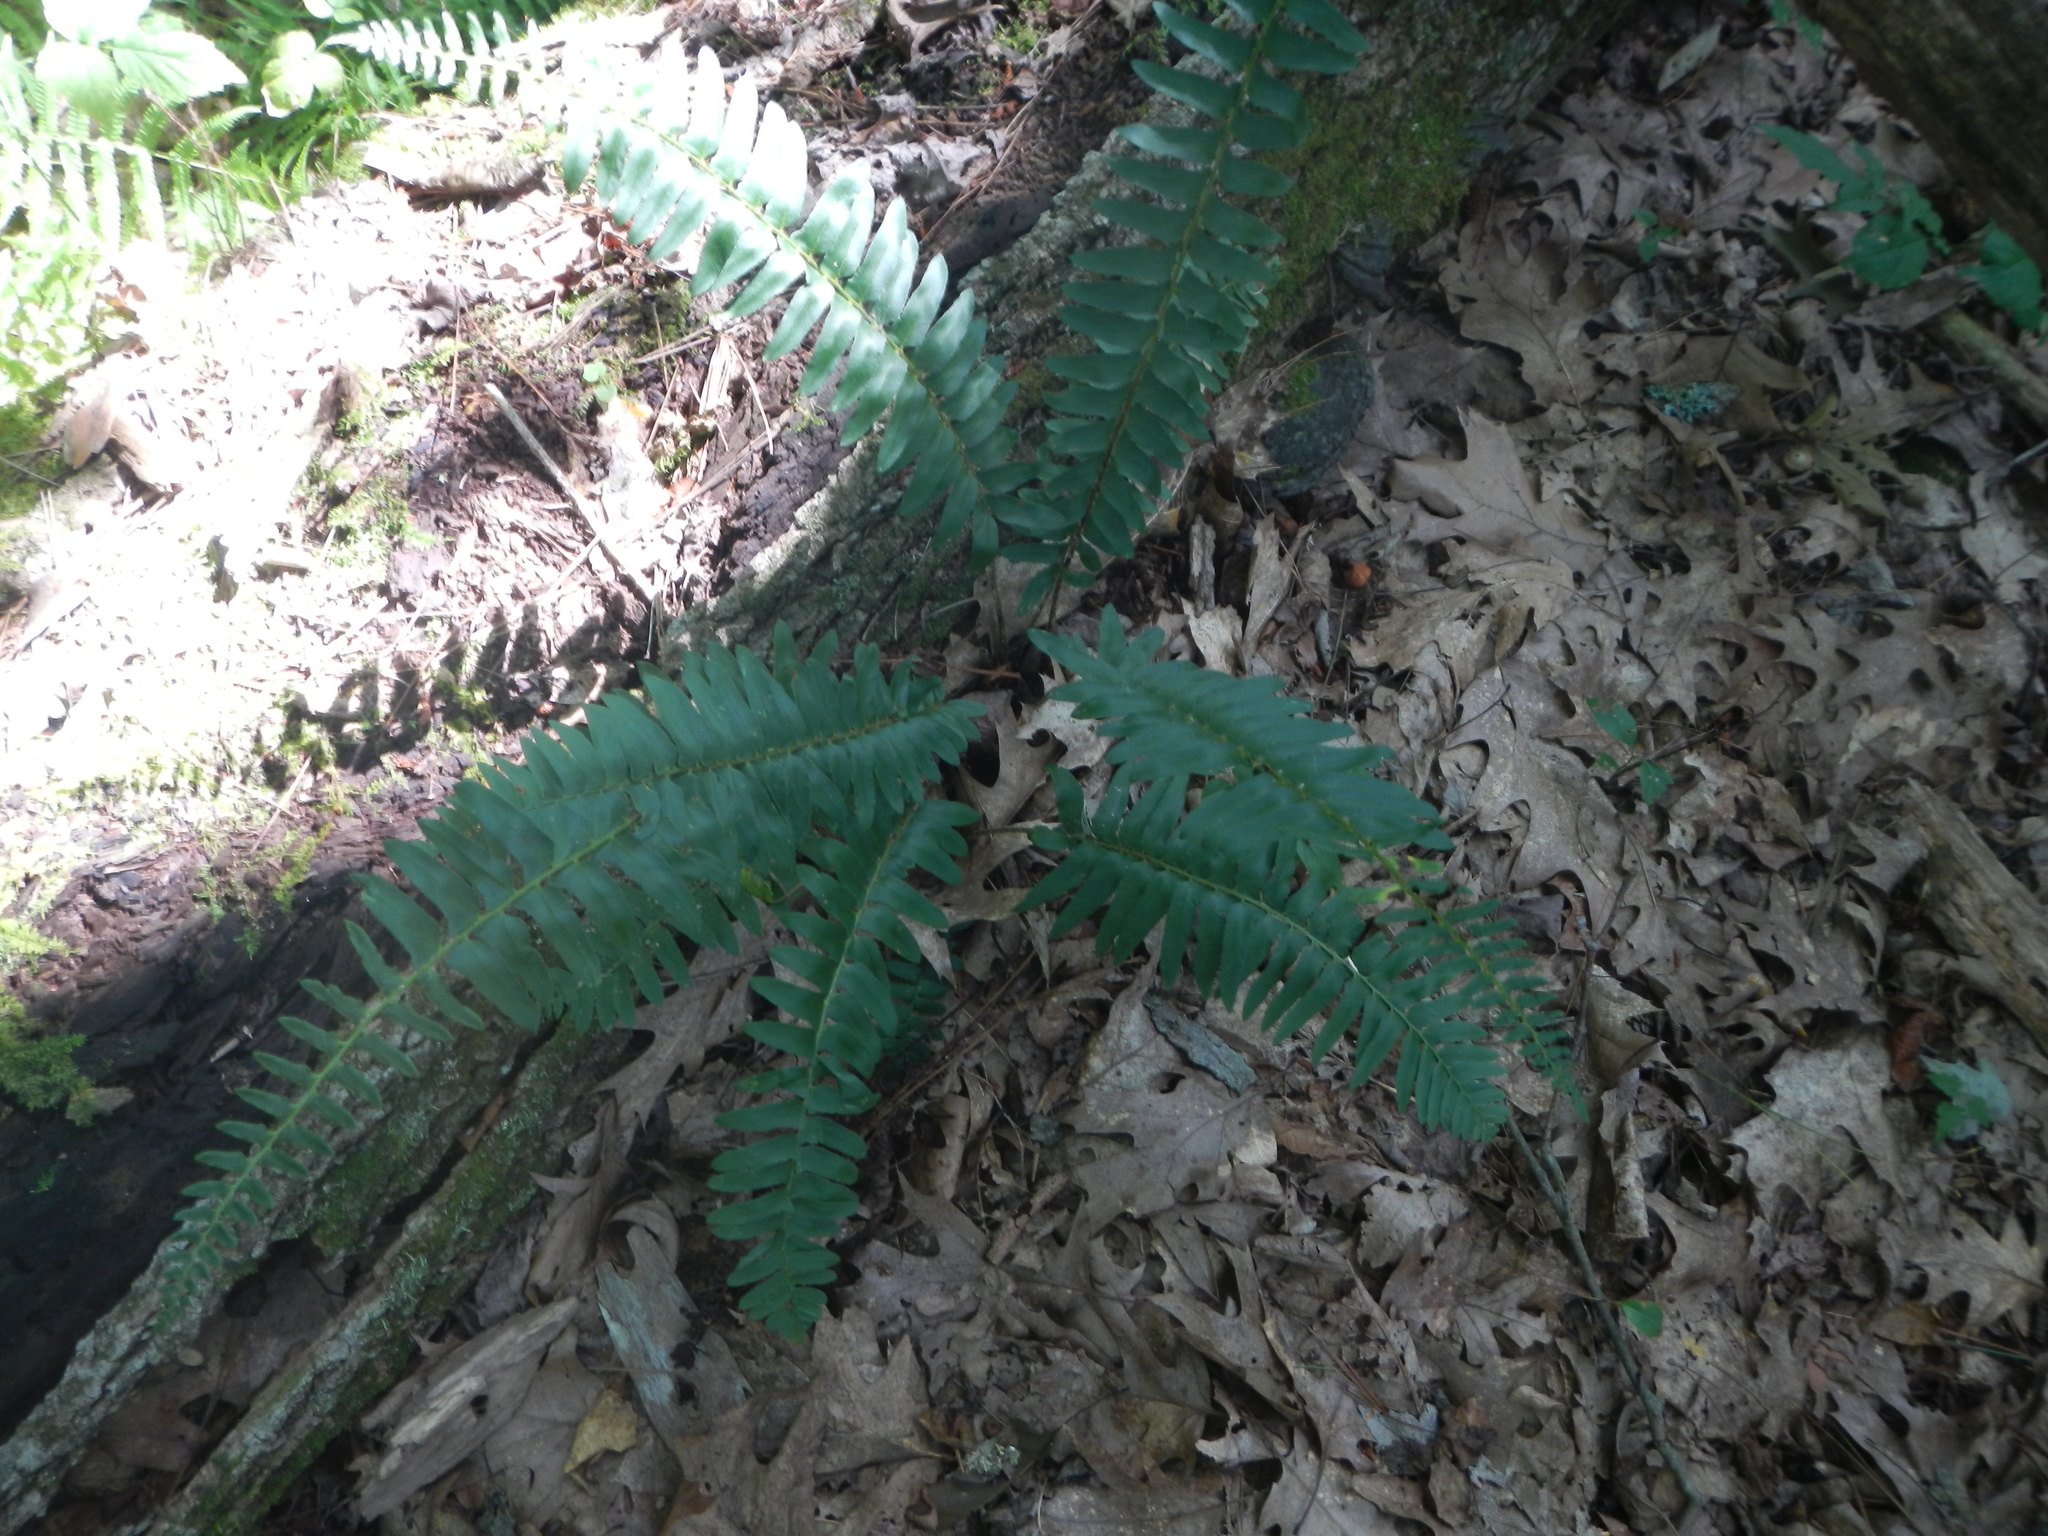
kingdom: Plantae
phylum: Tracheophyta
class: Polypodiopsida
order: Polypodiales
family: Dryopteridaceae
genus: Polystichum
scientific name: Polystichum acrostichoides
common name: Christmas fern
